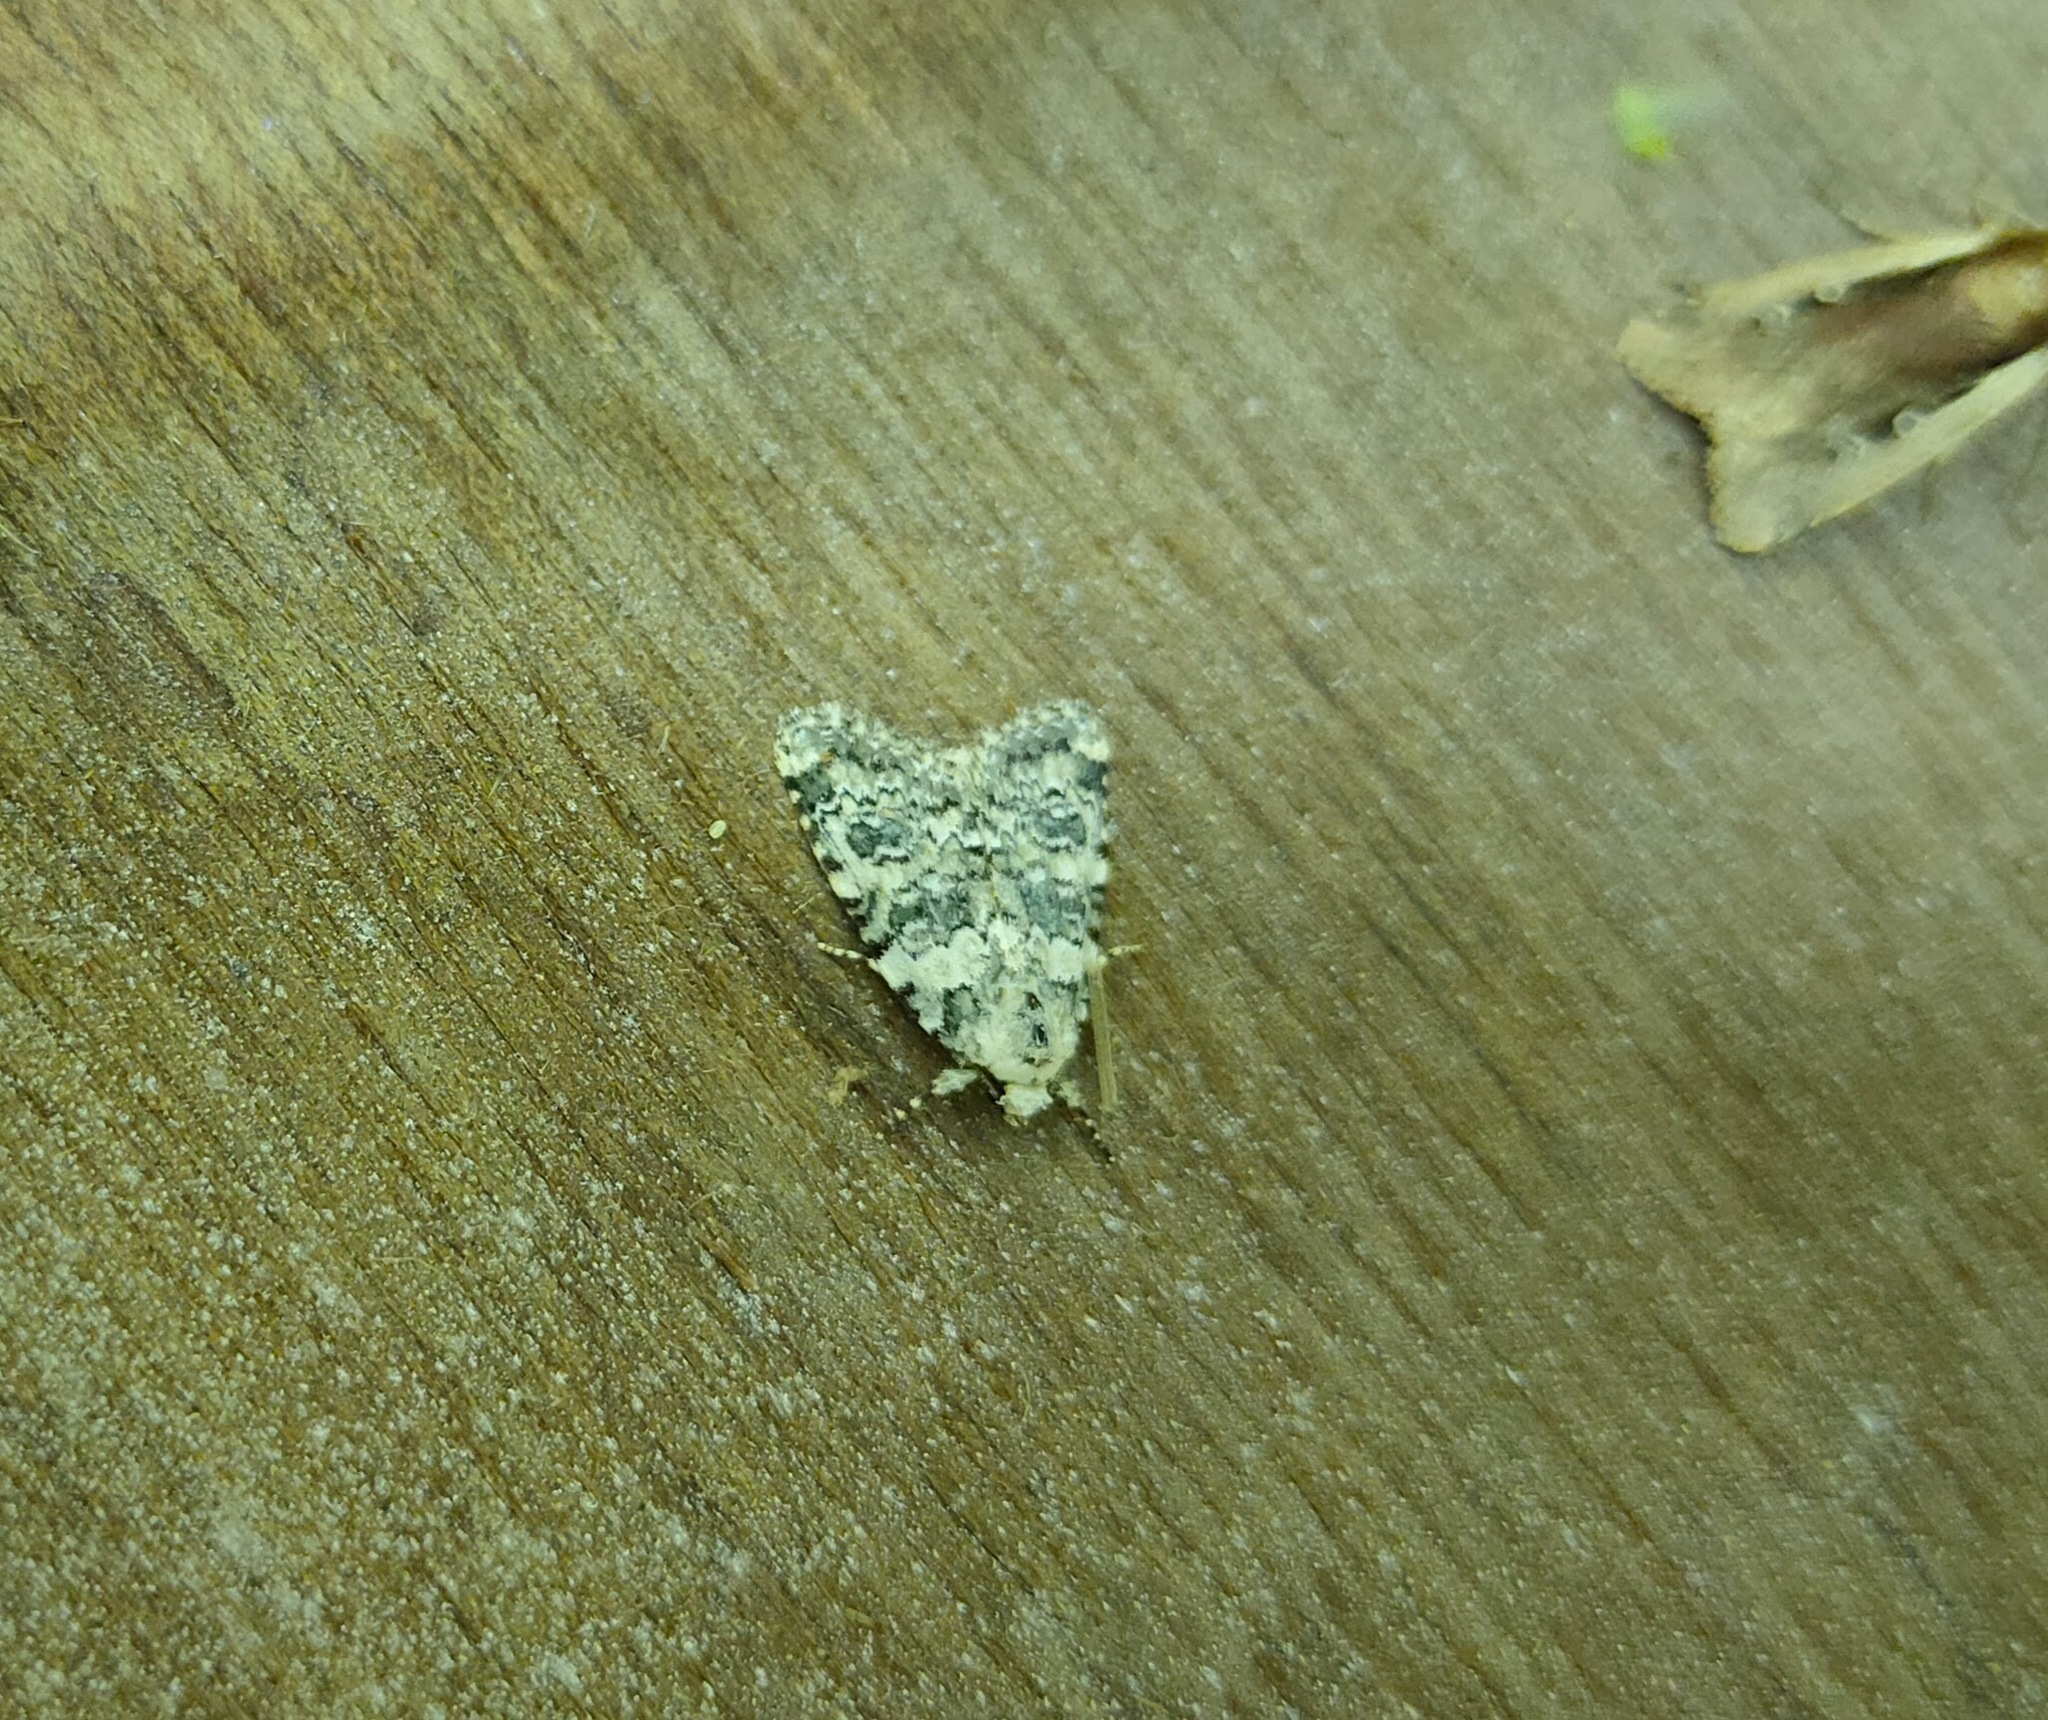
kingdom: Animalia
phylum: Arthropoda
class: Insecta
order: Lepidoptera
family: Noctuidae
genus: Bryophila
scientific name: Bryophila domestica
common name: Marbled beauty
